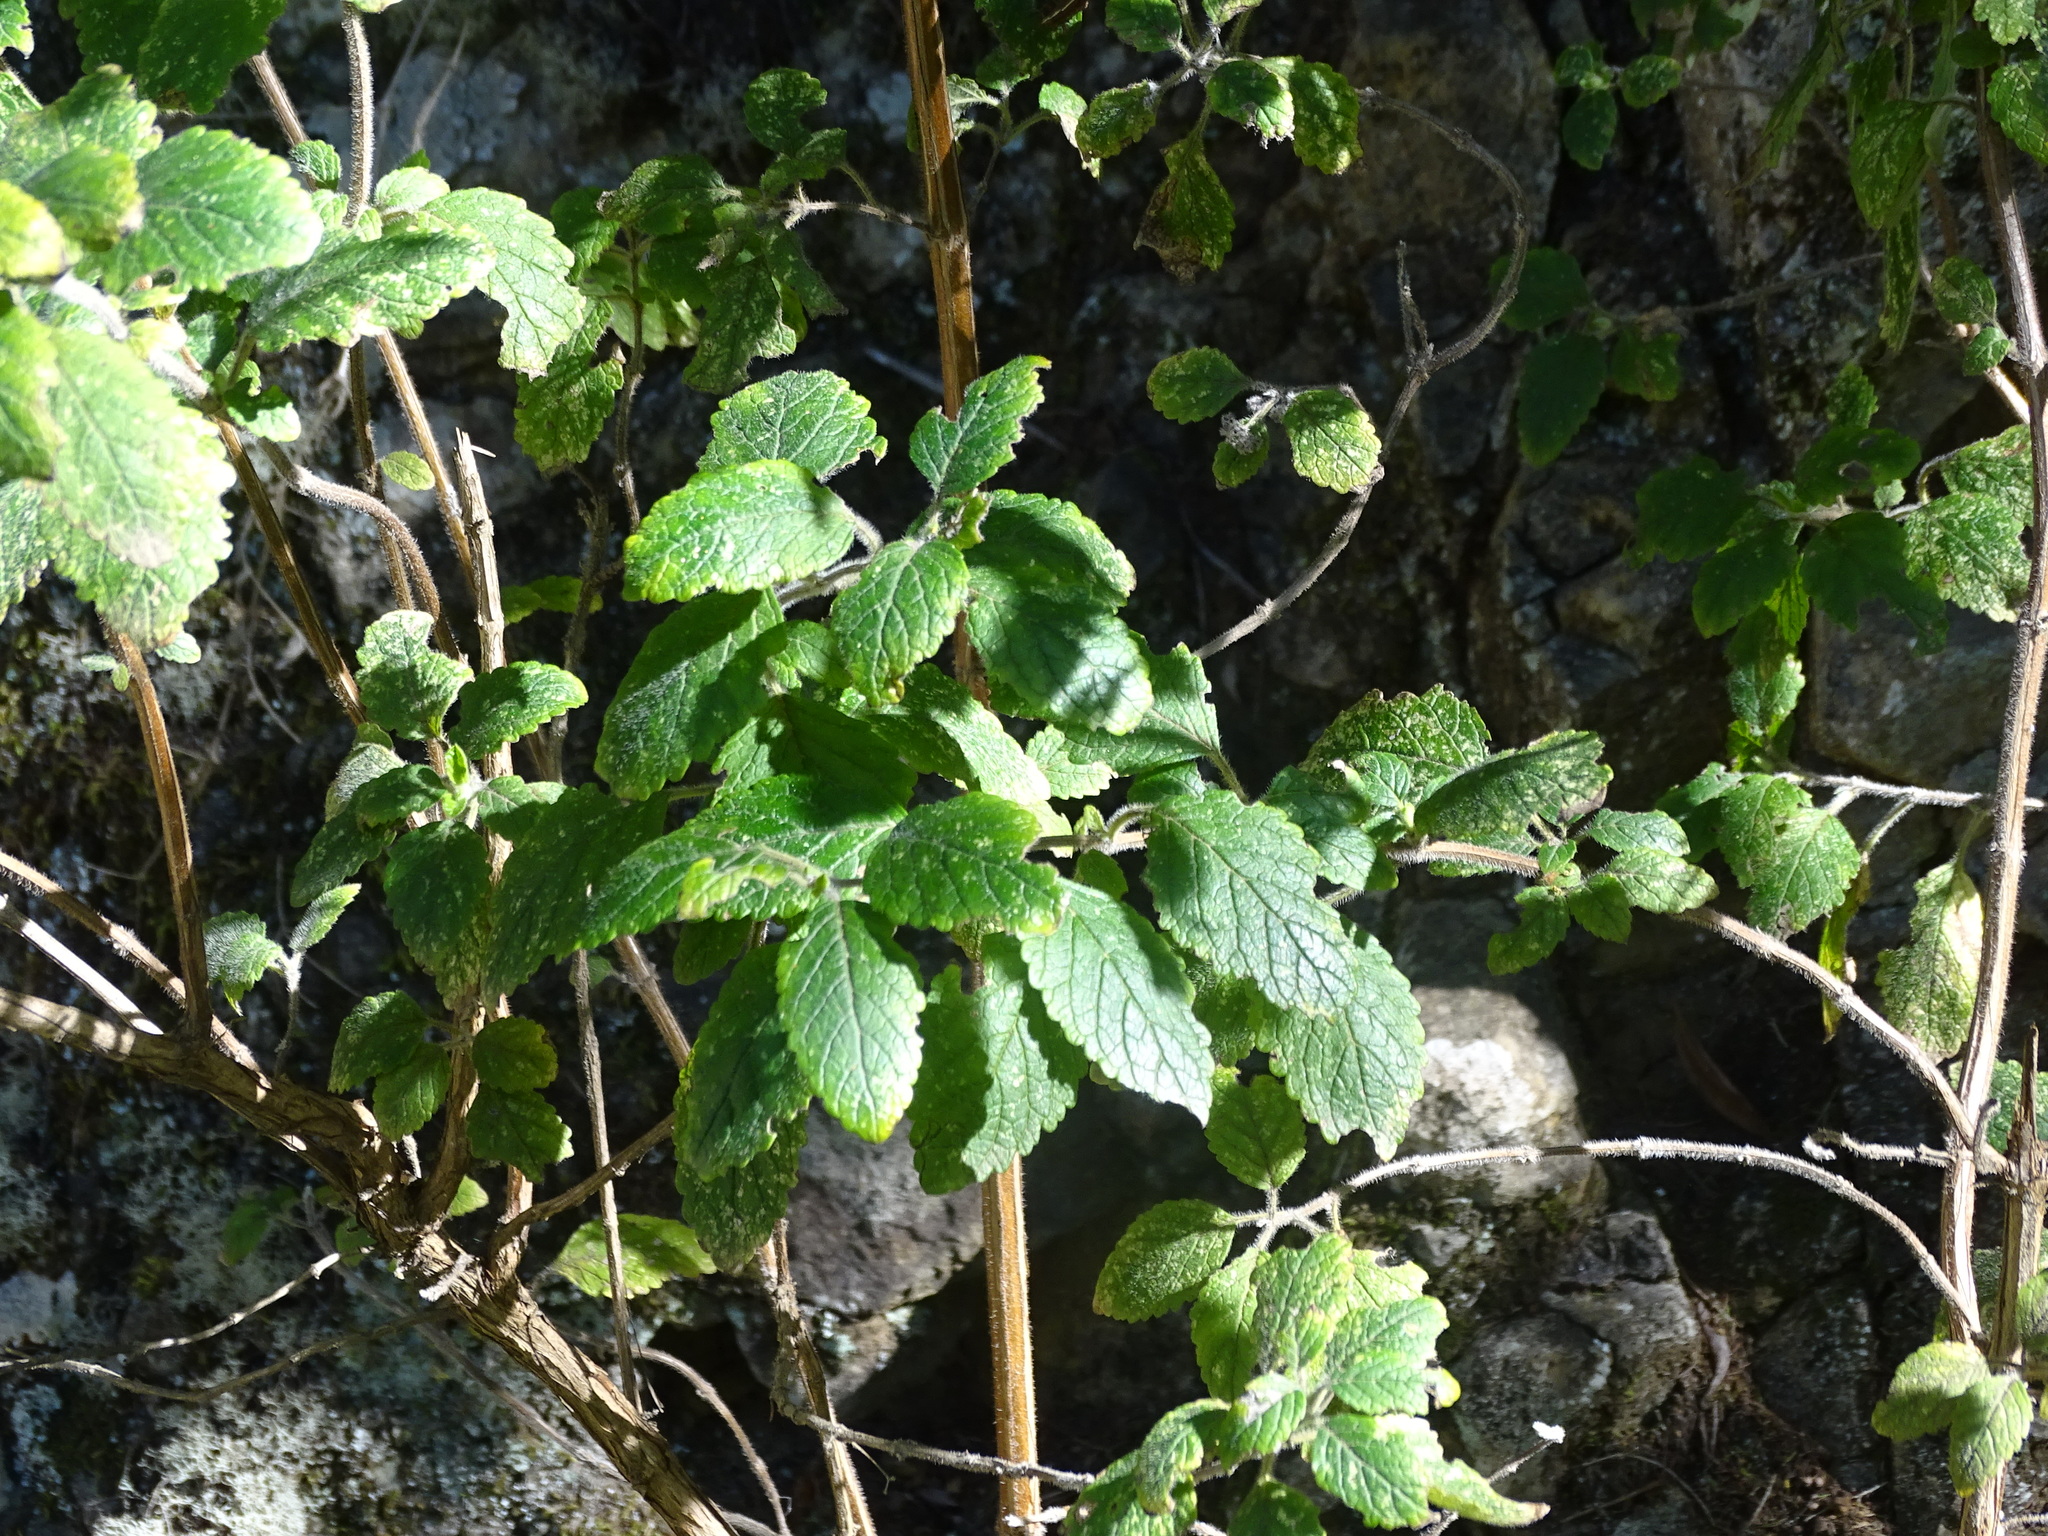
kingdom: Plantae
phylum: Tracheophyta
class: Magnoliopsida
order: Lamiales
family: Lamiaceae
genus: Bystropogon
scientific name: Bystropogon canariensis
